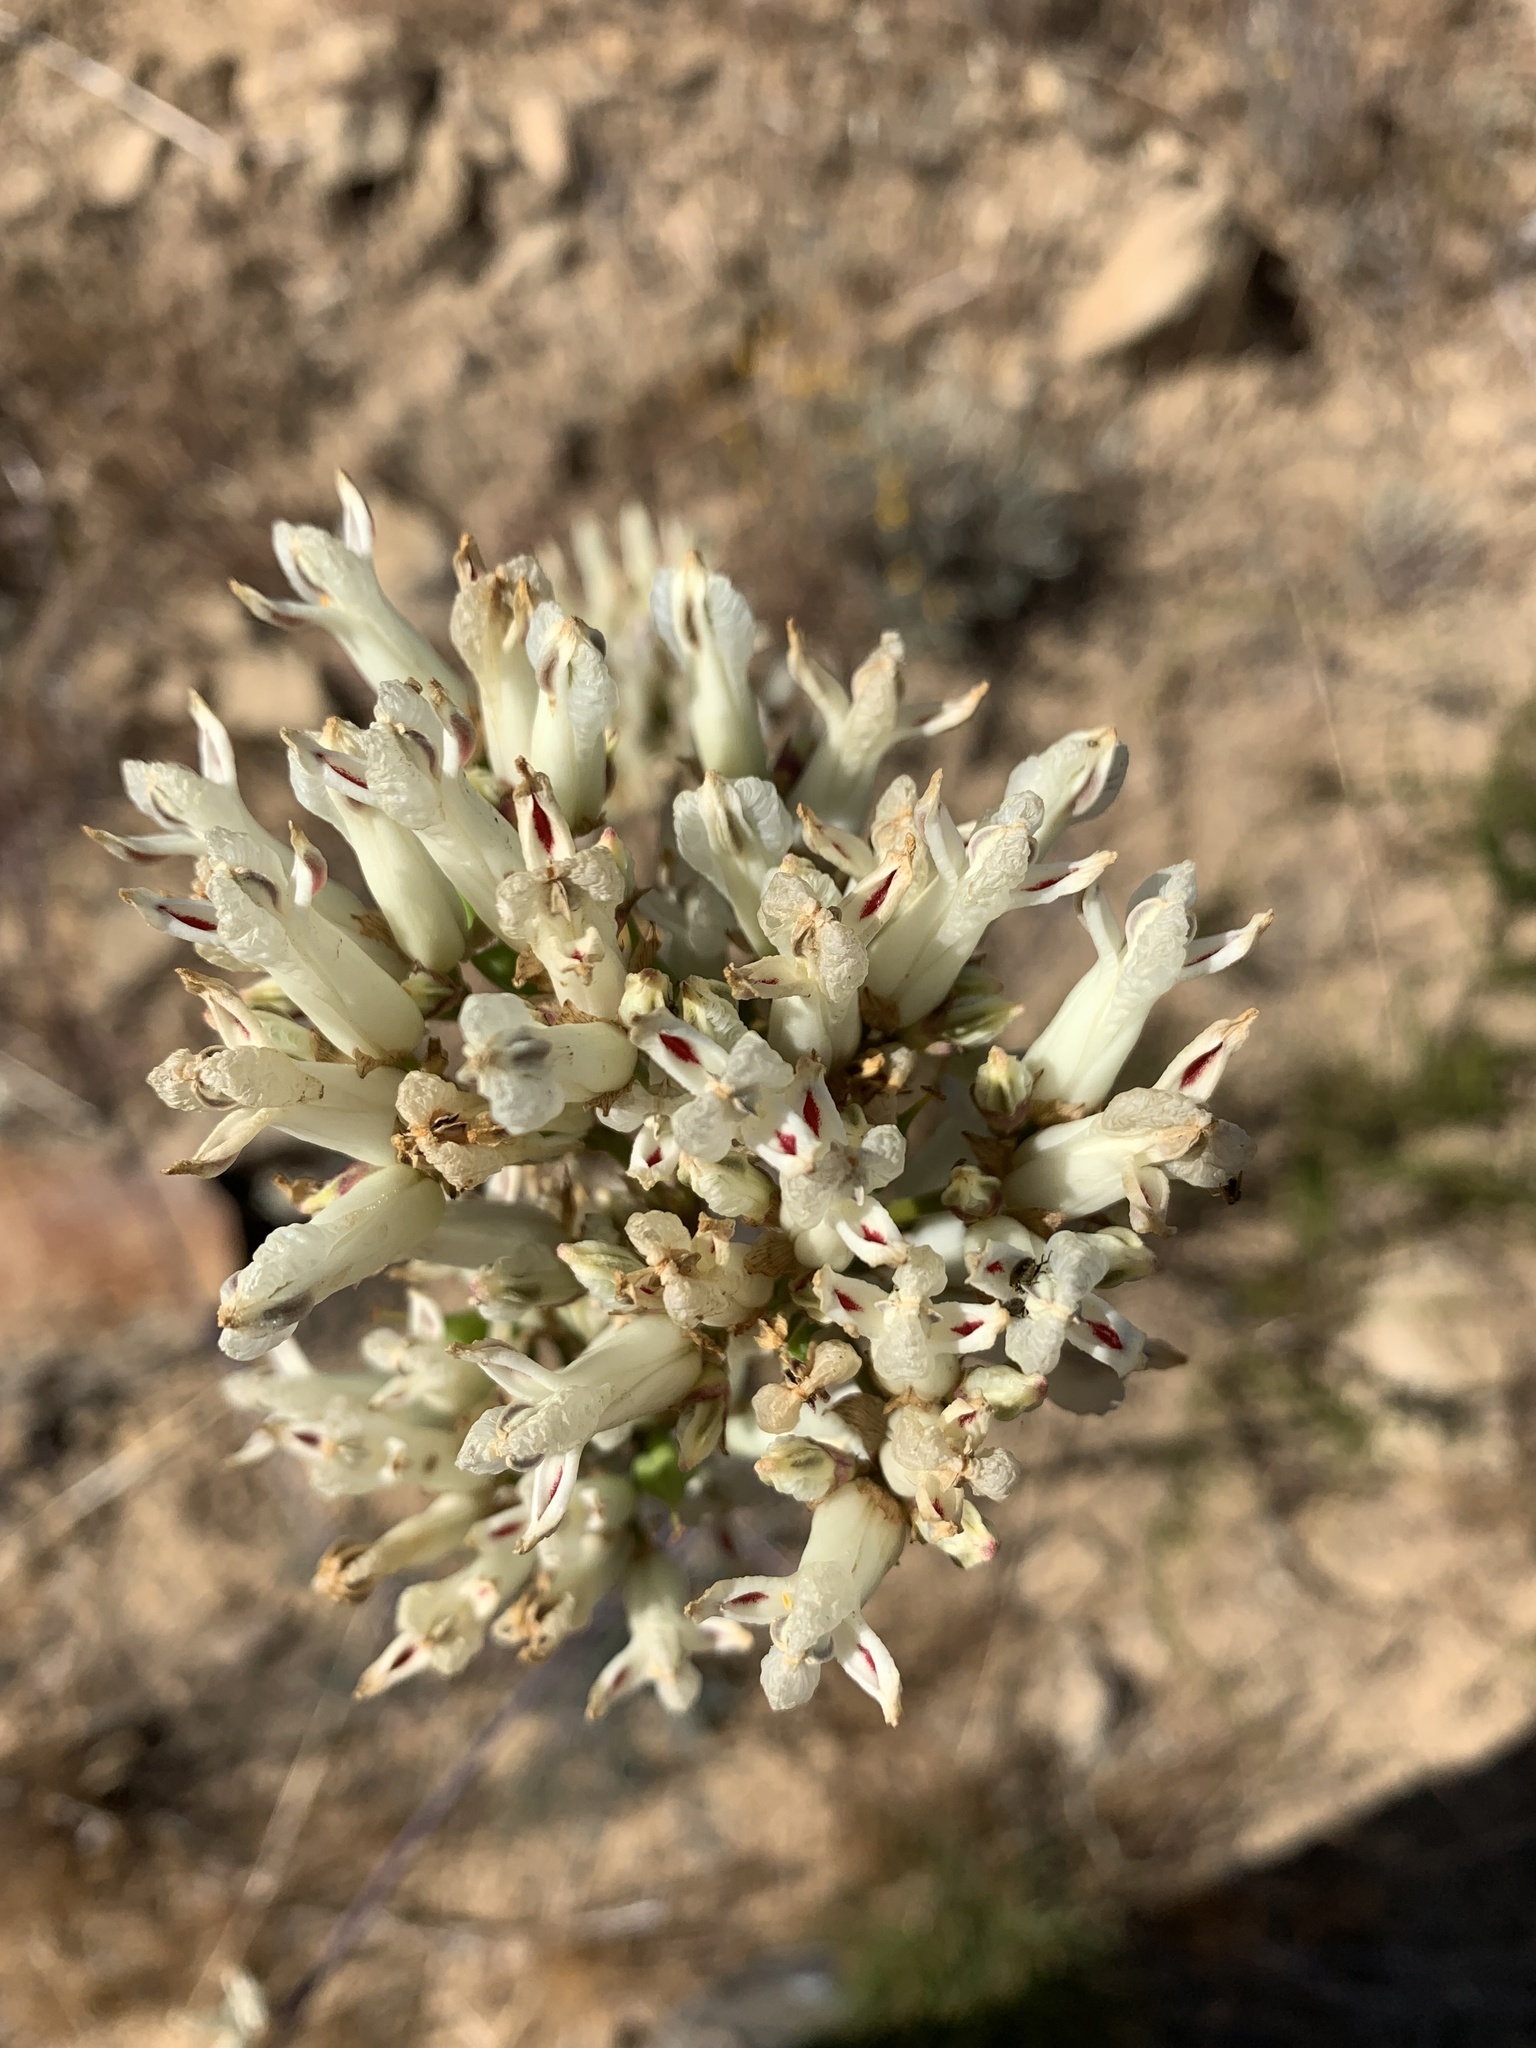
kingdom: Plantae
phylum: Tracheophyta
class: Magnoliopsida
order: Ranunculales
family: Papaveraceae
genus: Ehrendorferia
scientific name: Ehrendorferia ochroleuca
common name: White eardrops
